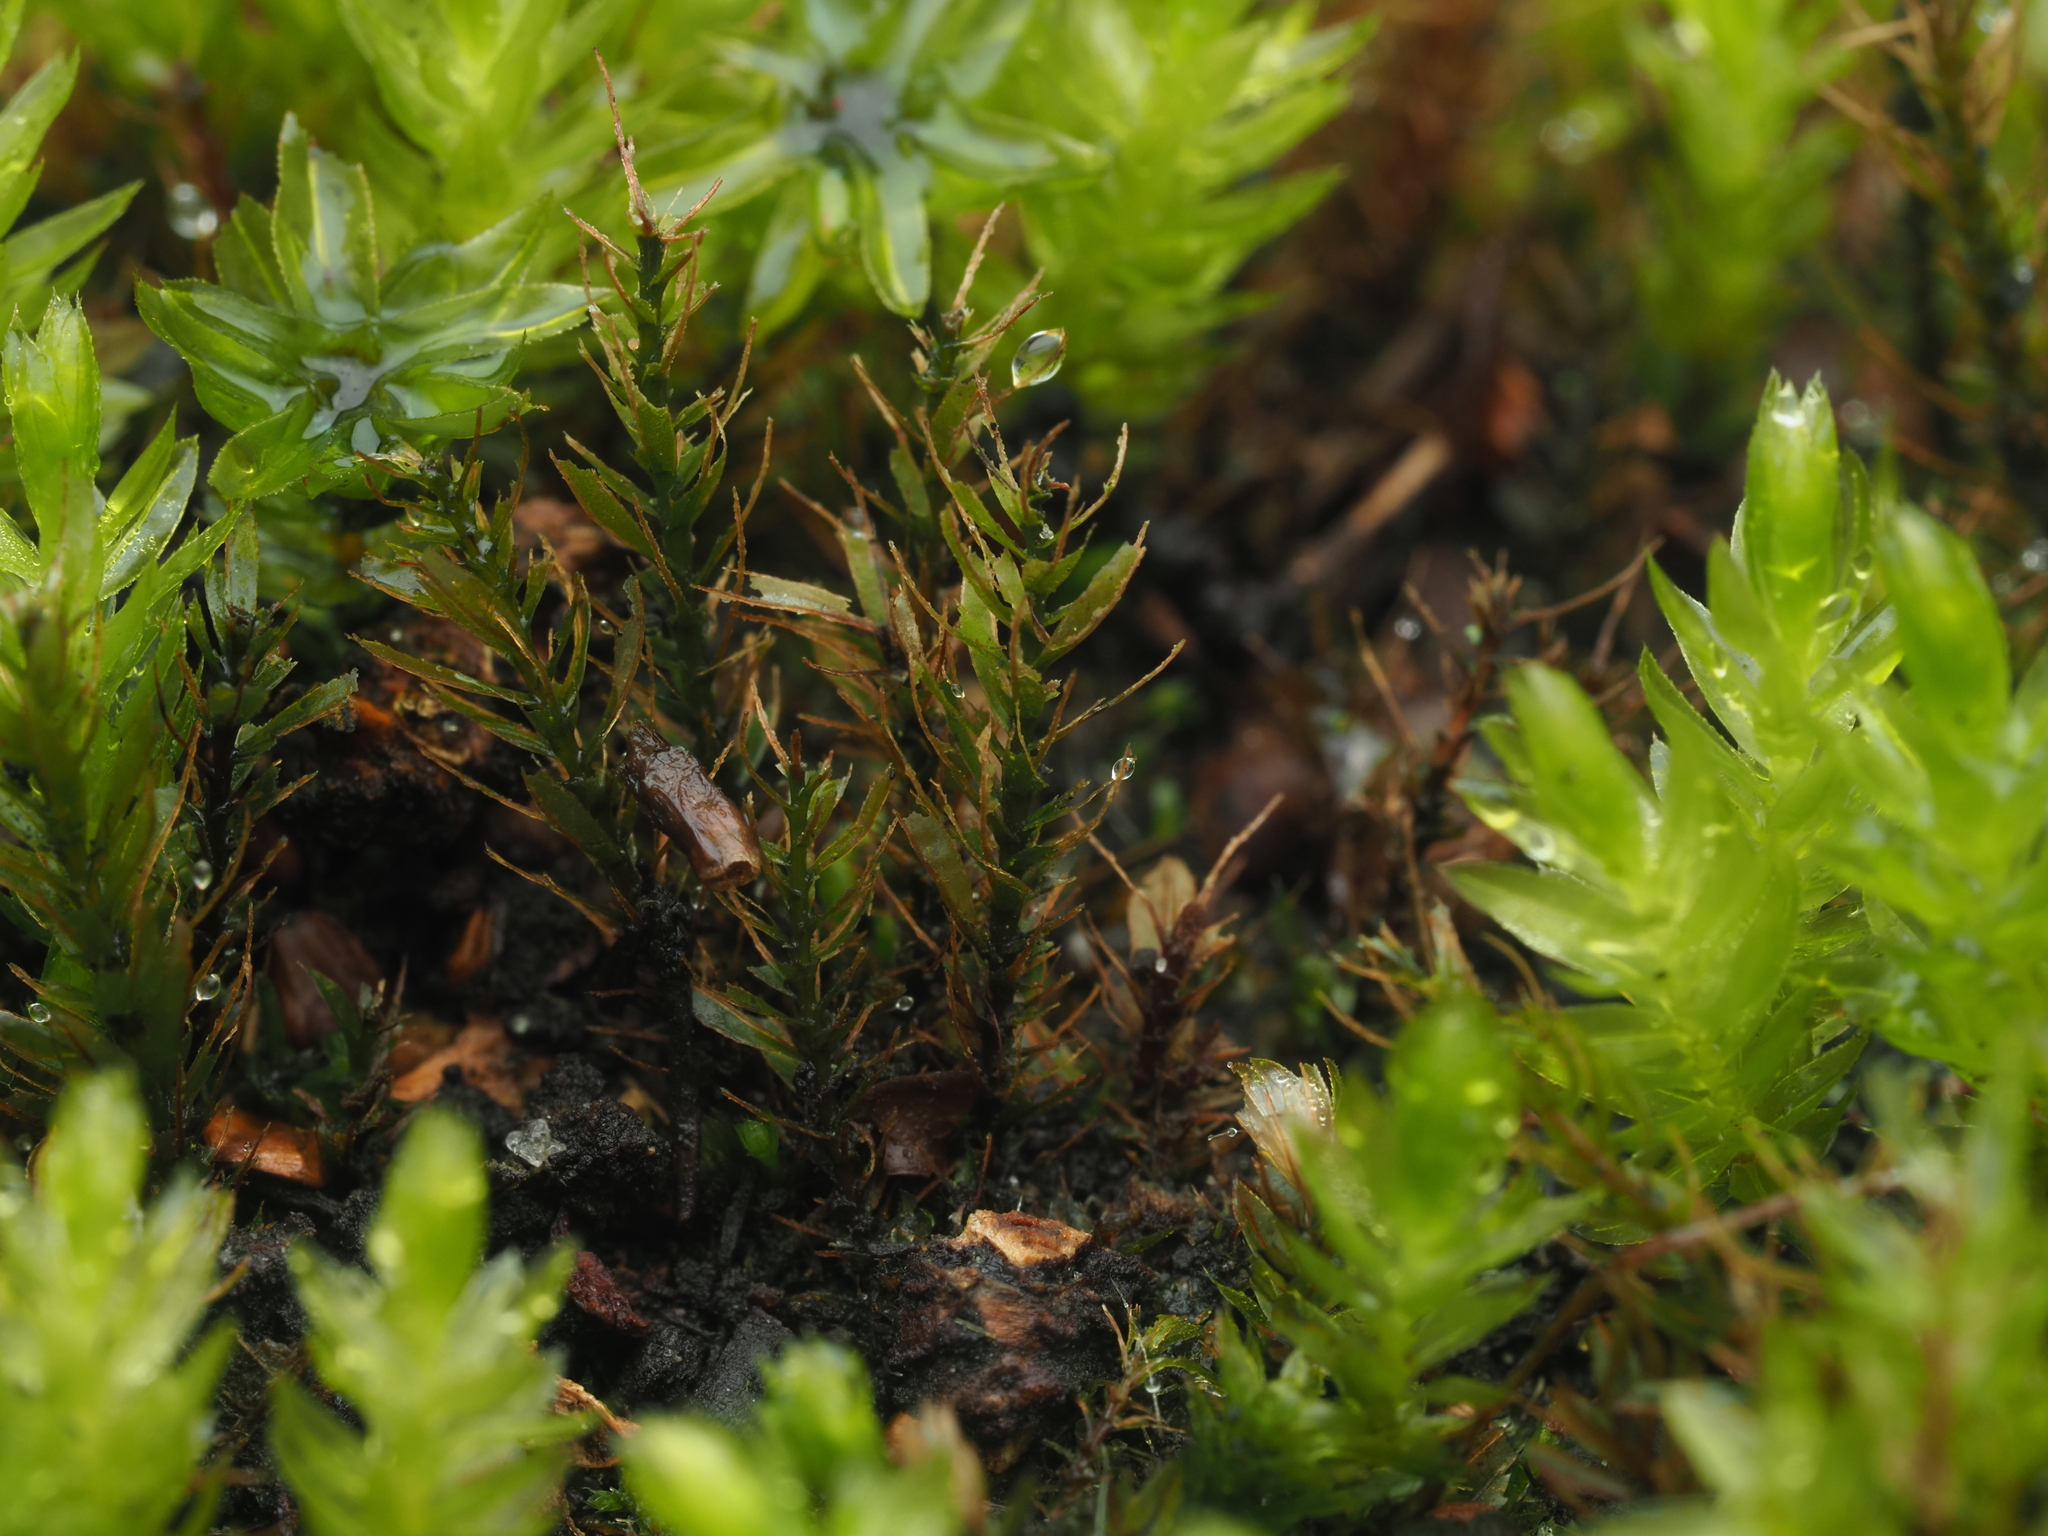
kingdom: Plantae
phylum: Bryophyta
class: Bryopsida
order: Bryales
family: Mniaceae
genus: Mnium
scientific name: Mnium hornum
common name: Swan's-neck leafy moss
